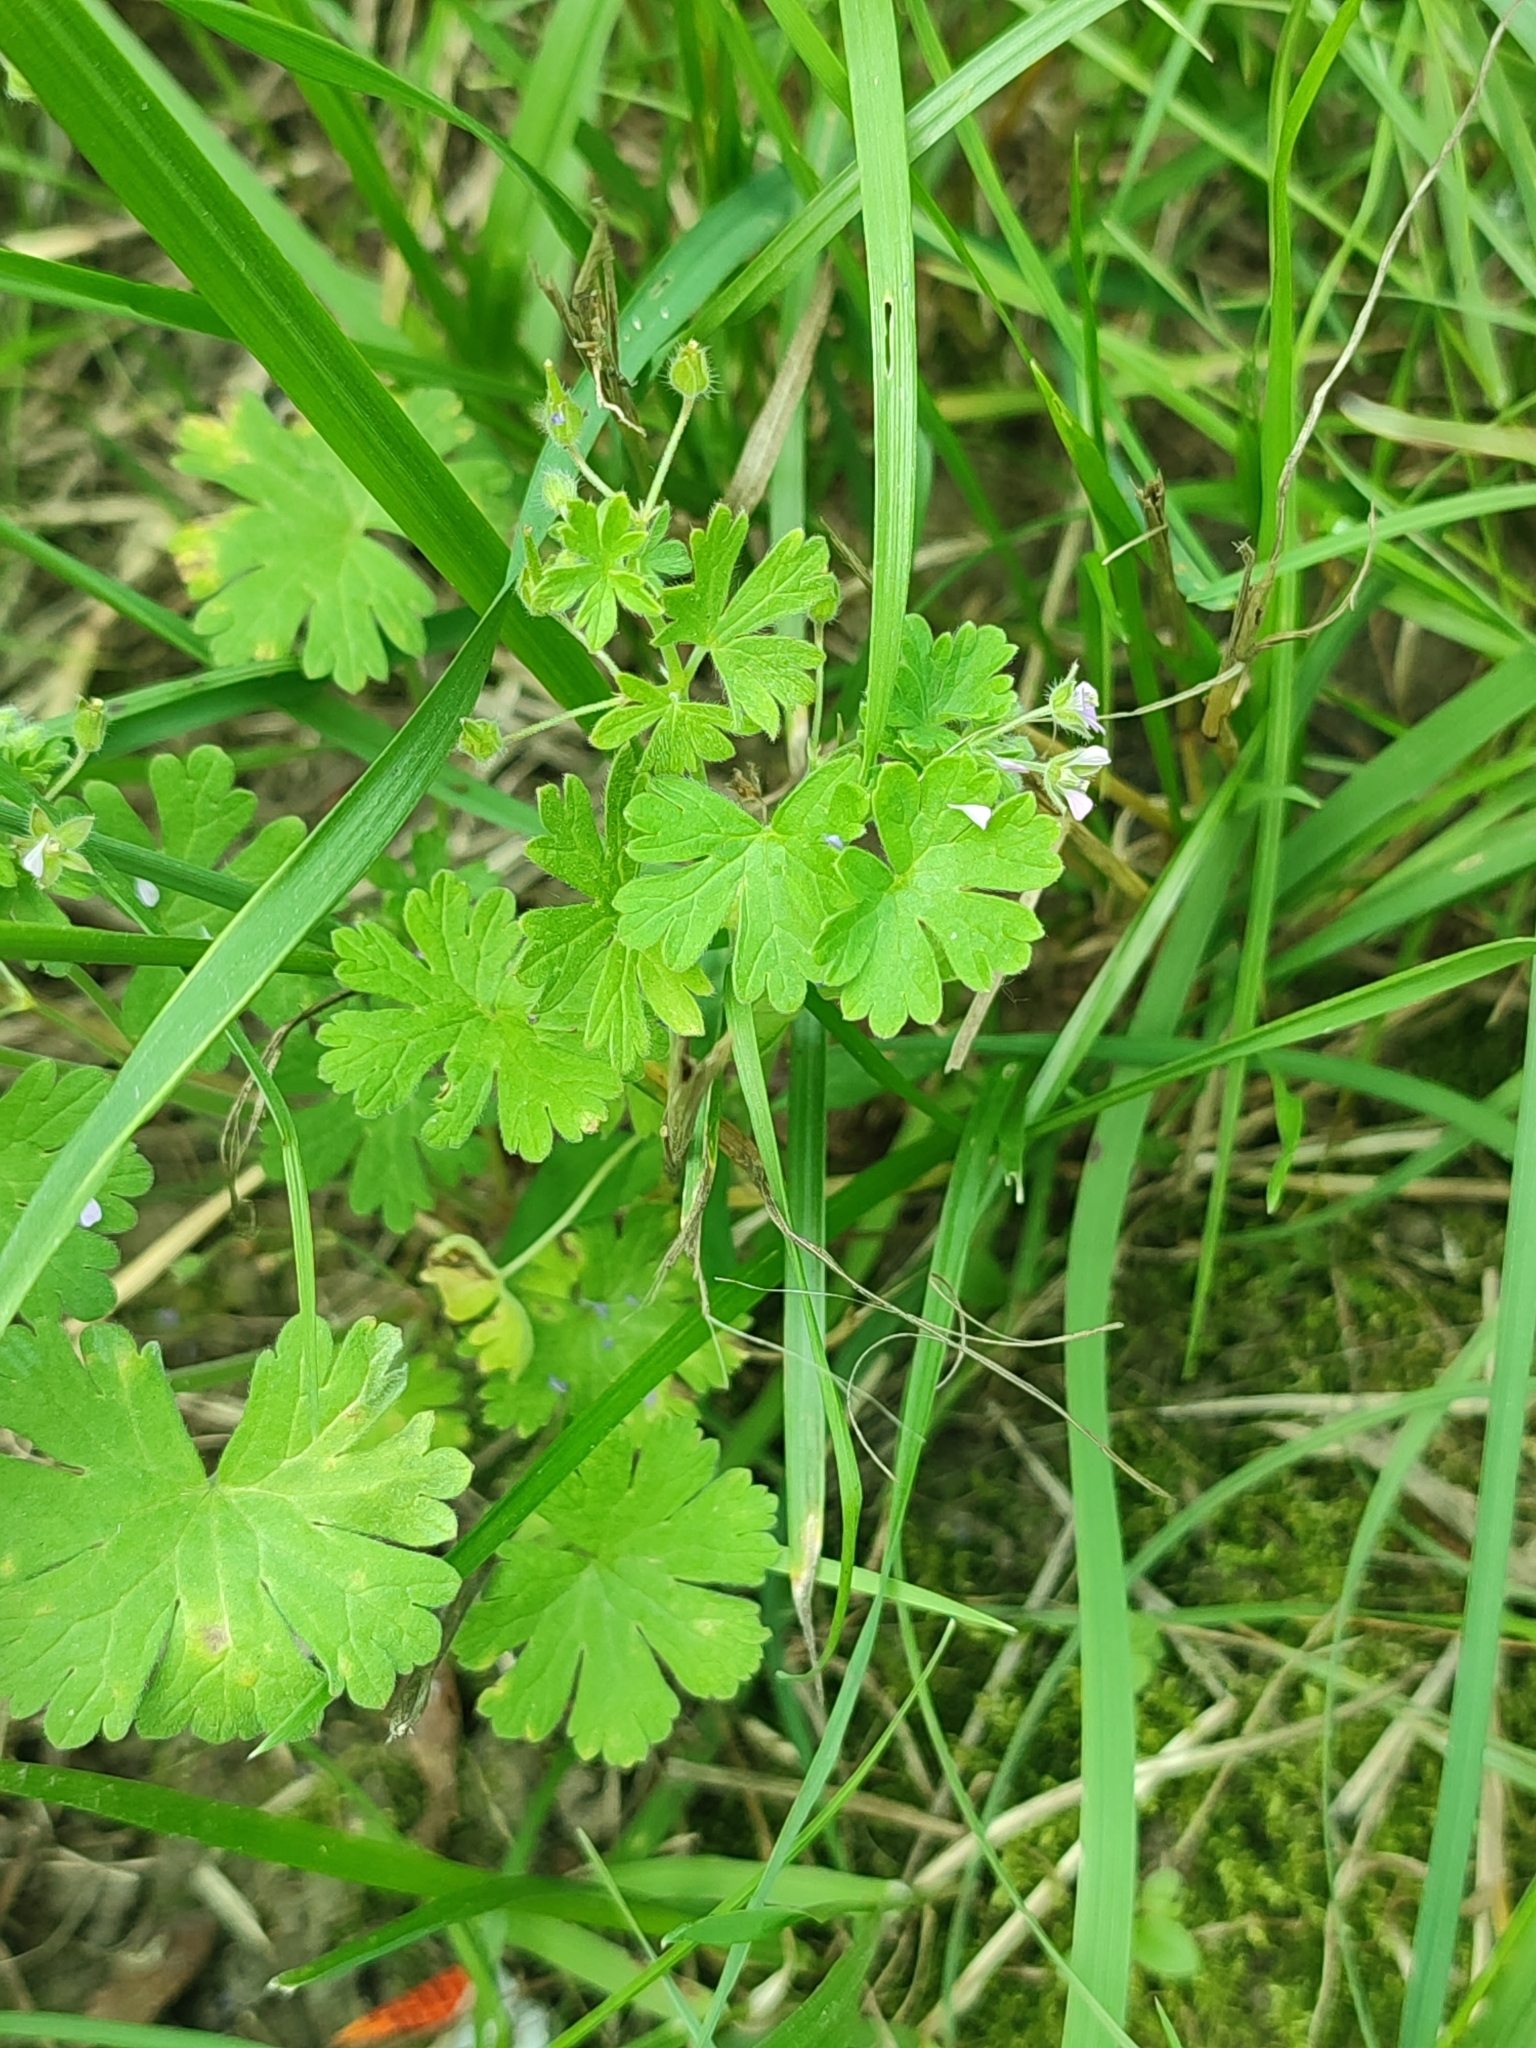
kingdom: Plantae
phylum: Tracheophyta
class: Magnoliopsida
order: Geraniales
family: Geraniaceae
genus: Geranium
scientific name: Geranium pusillum
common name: Small geranium
